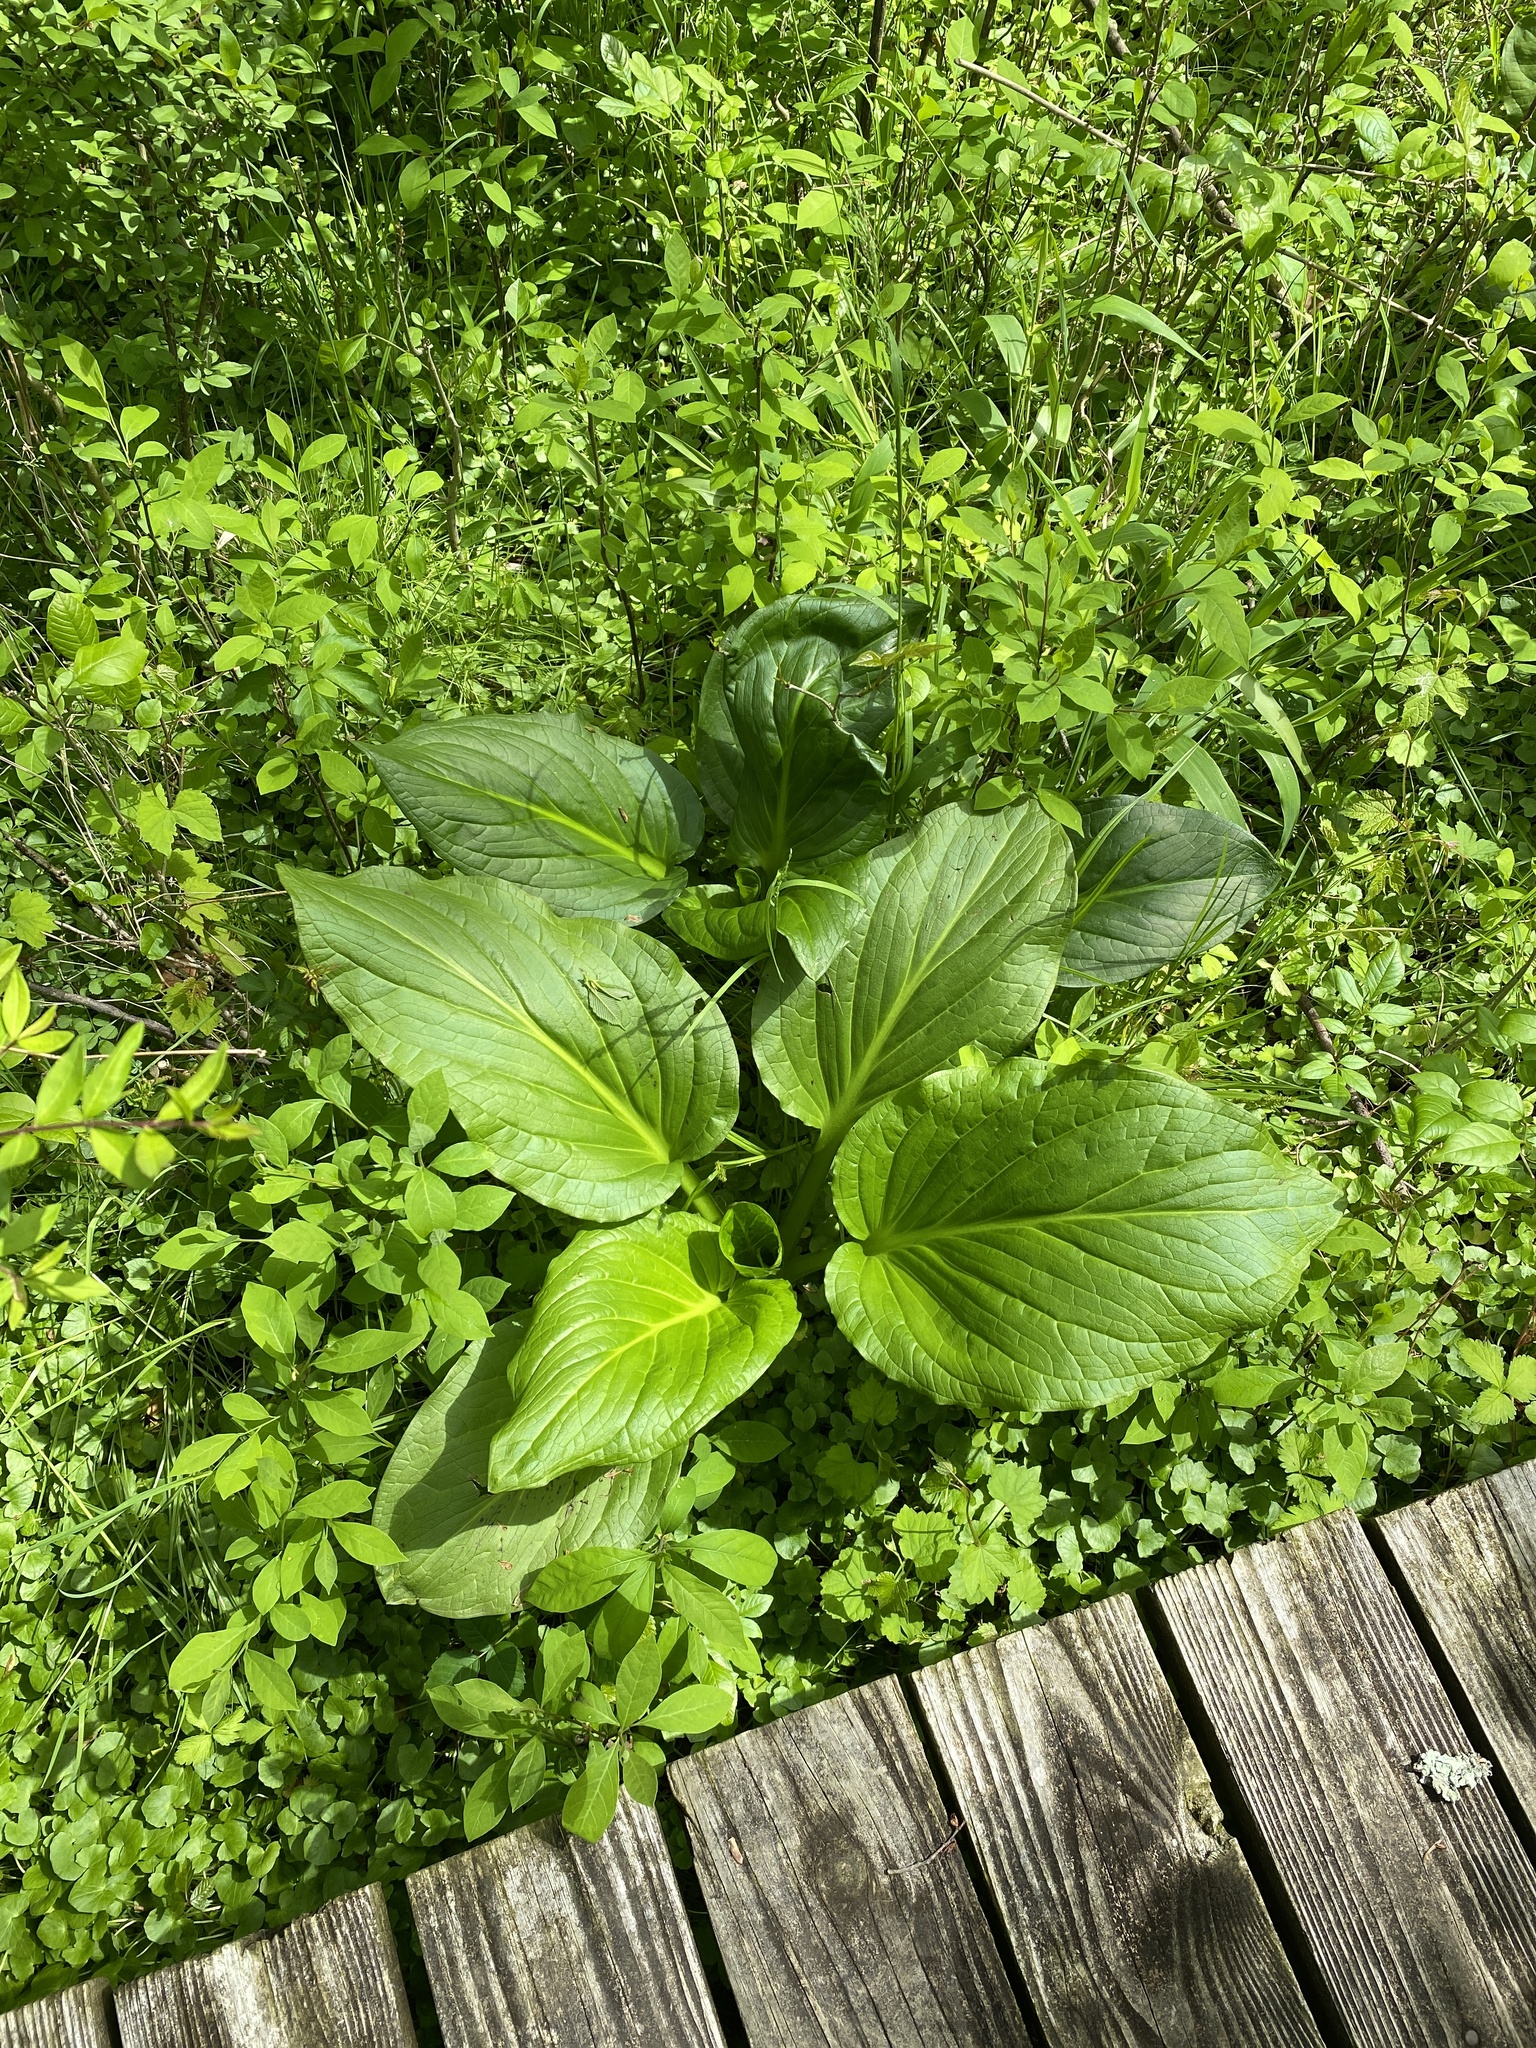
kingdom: Plantae
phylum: Tracheophyta
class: Liliopsida
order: Alismatales
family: Araceae
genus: Symplocarpus
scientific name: Symplocarpus foetidus
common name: Eastern skunk cabbage
